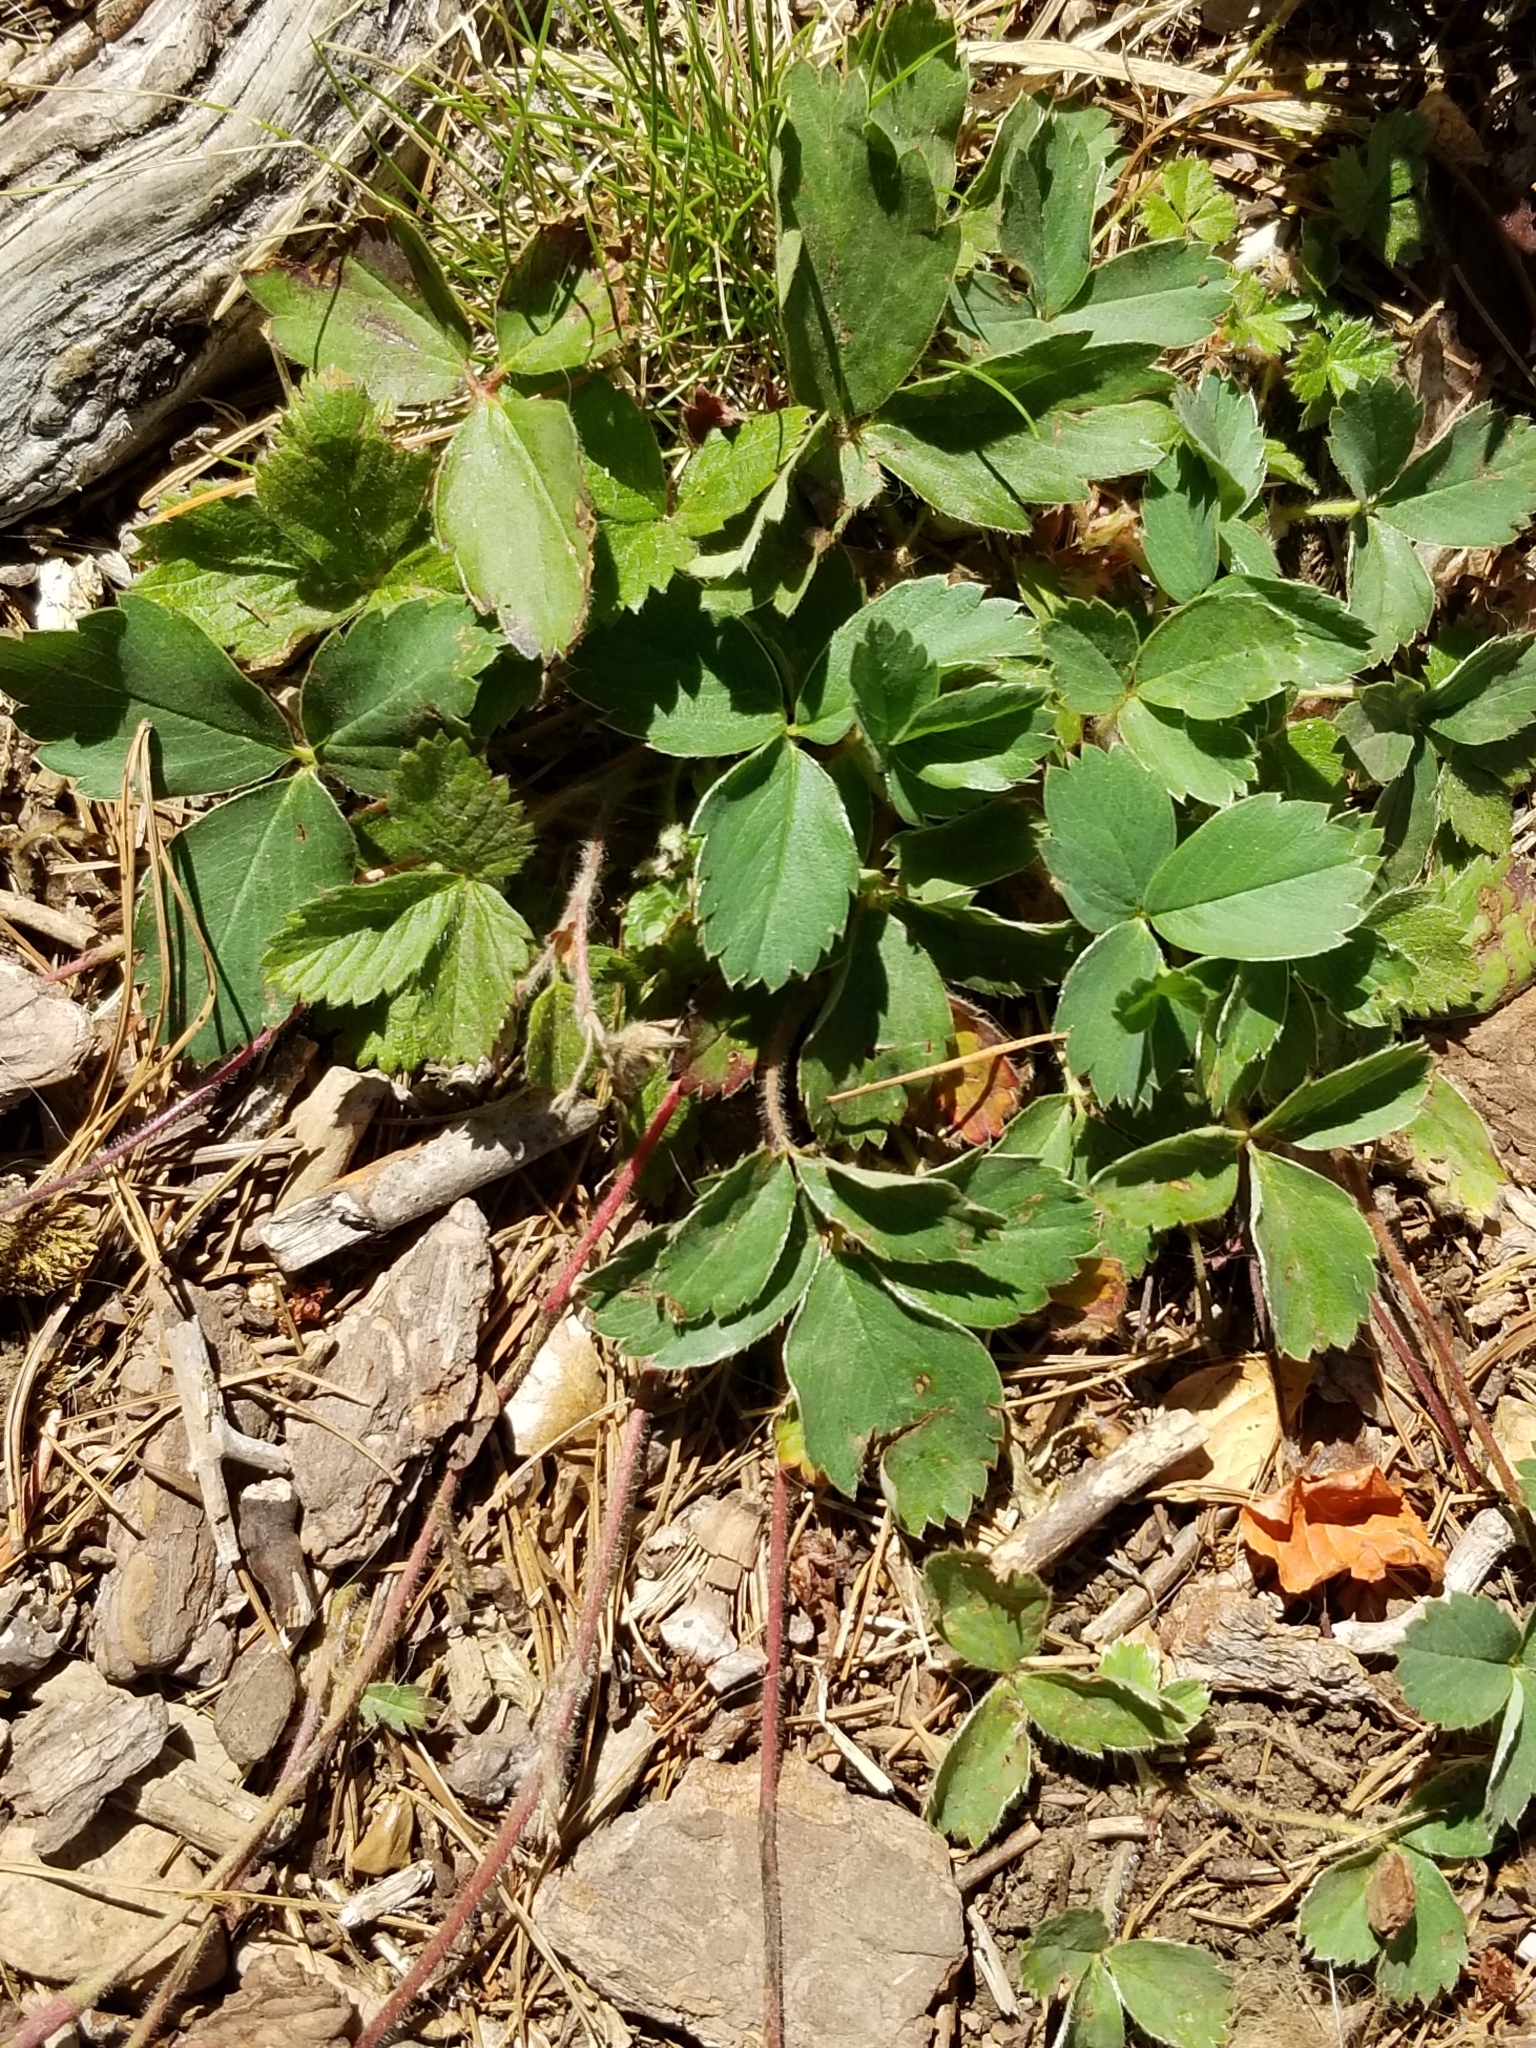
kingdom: Plantae
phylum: Tracheophyta
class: Magnoliopsida
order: Rosales
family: Rosaceae
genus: Fragaria
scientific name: Fragaria virginiana
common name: Thickleaved wild strawberry
